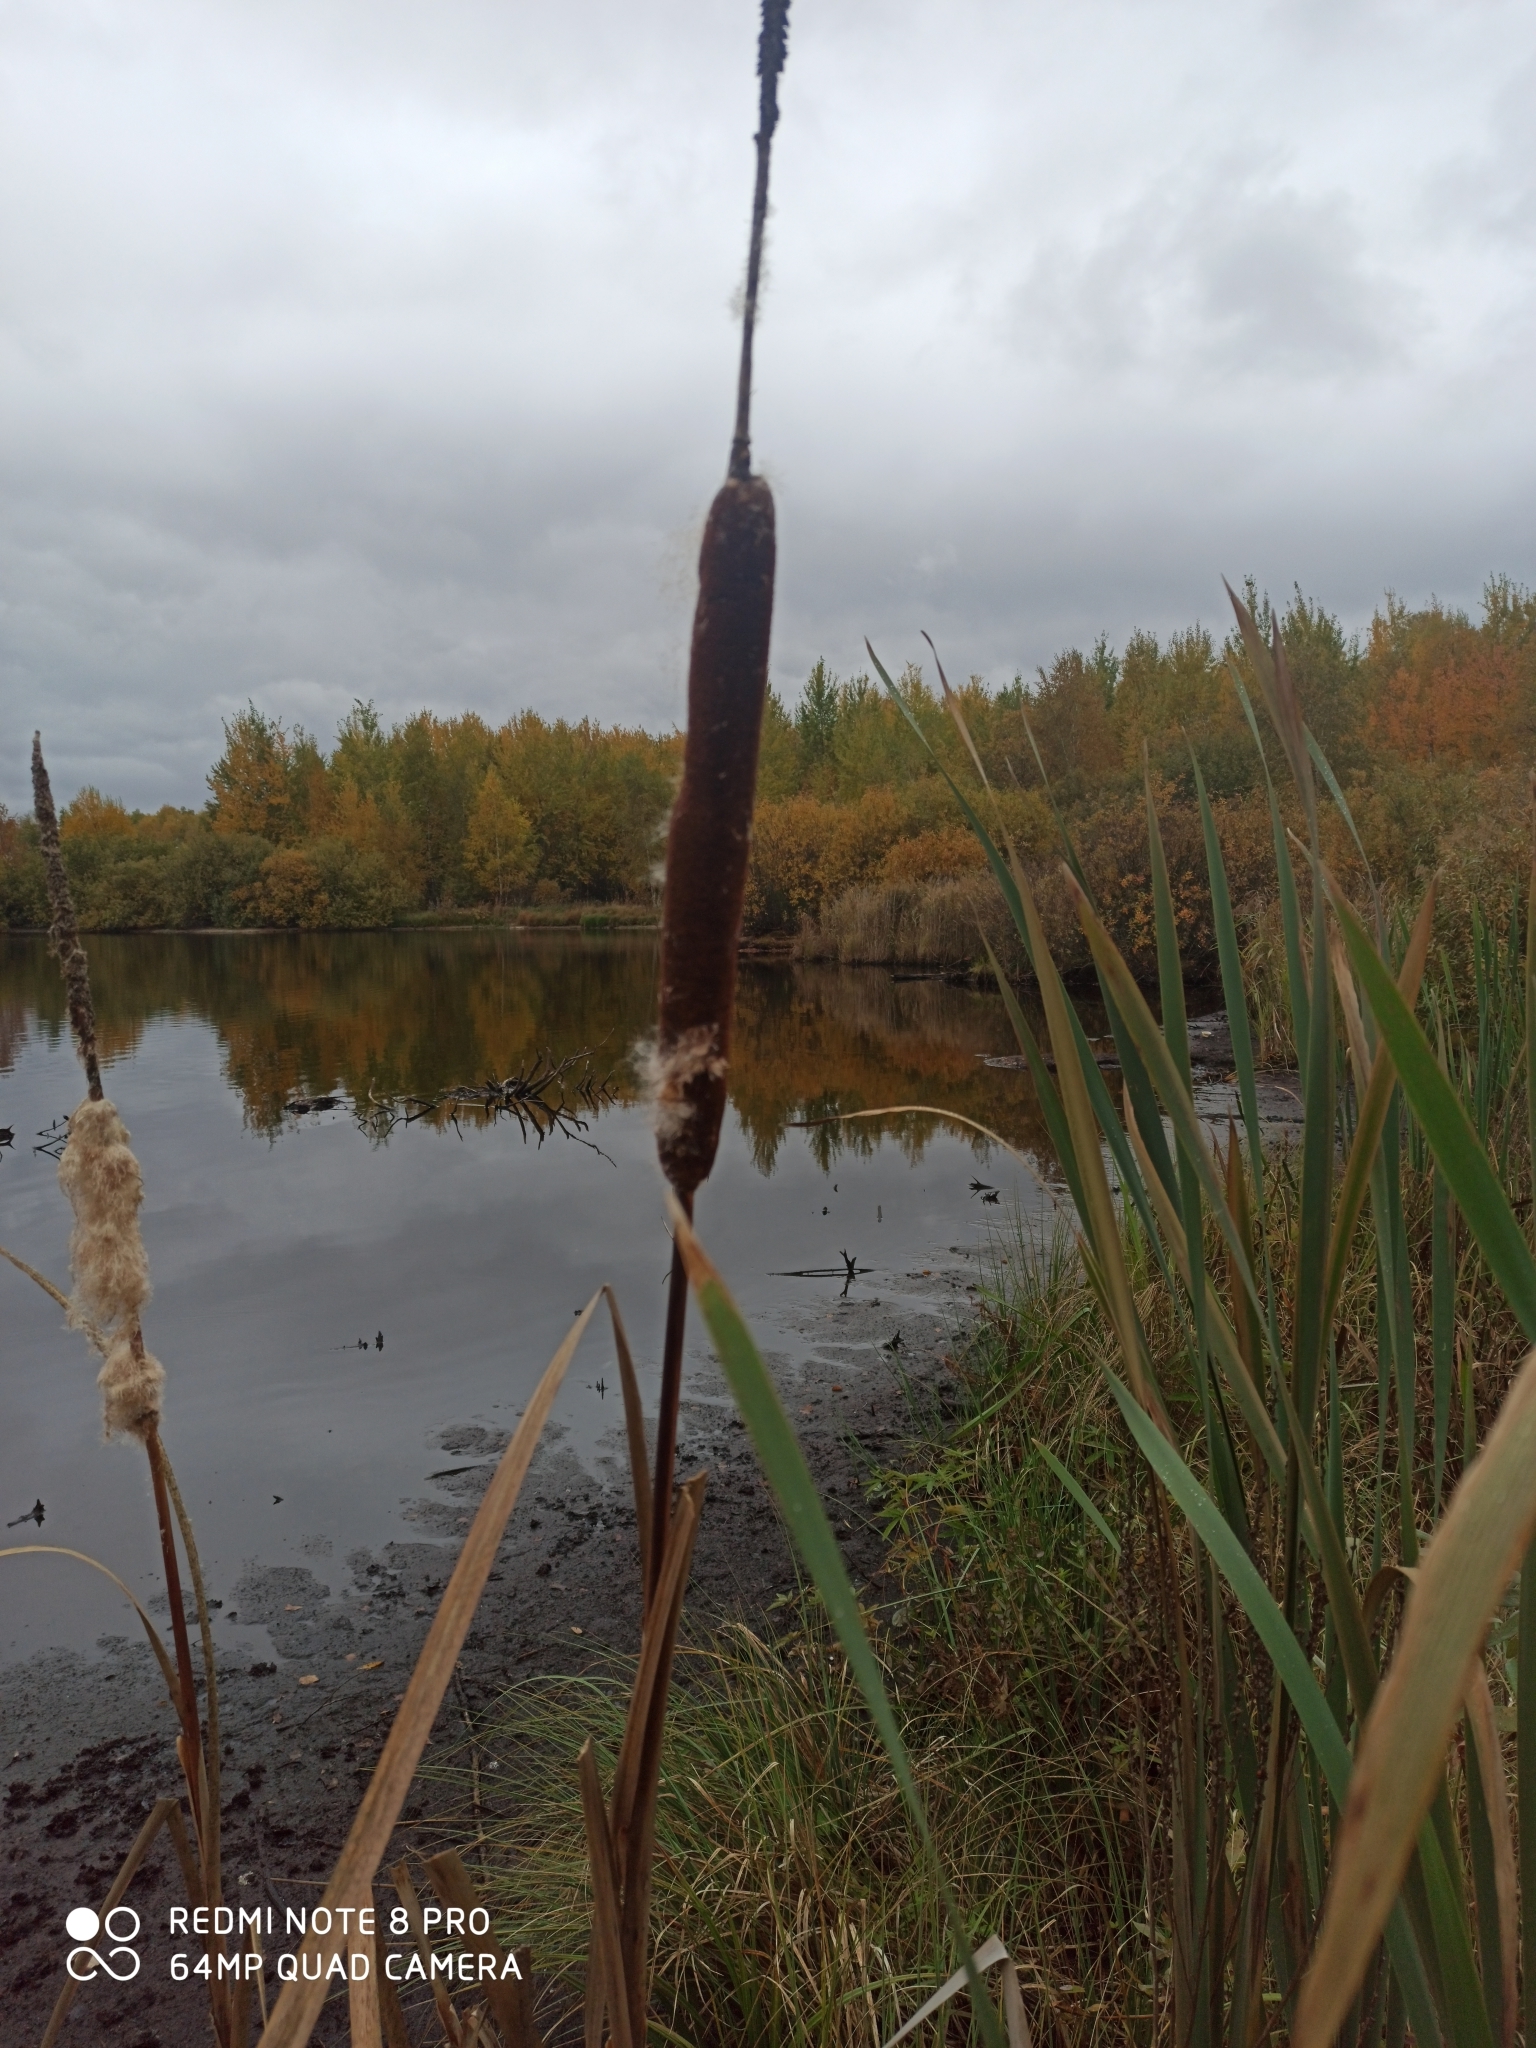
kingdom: Plantae
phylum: Tracheophyta
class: Liliopsida
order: Poales
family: Typhaceae
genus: Typha
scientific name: Typha latifolia
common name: Broadleaf cattail
